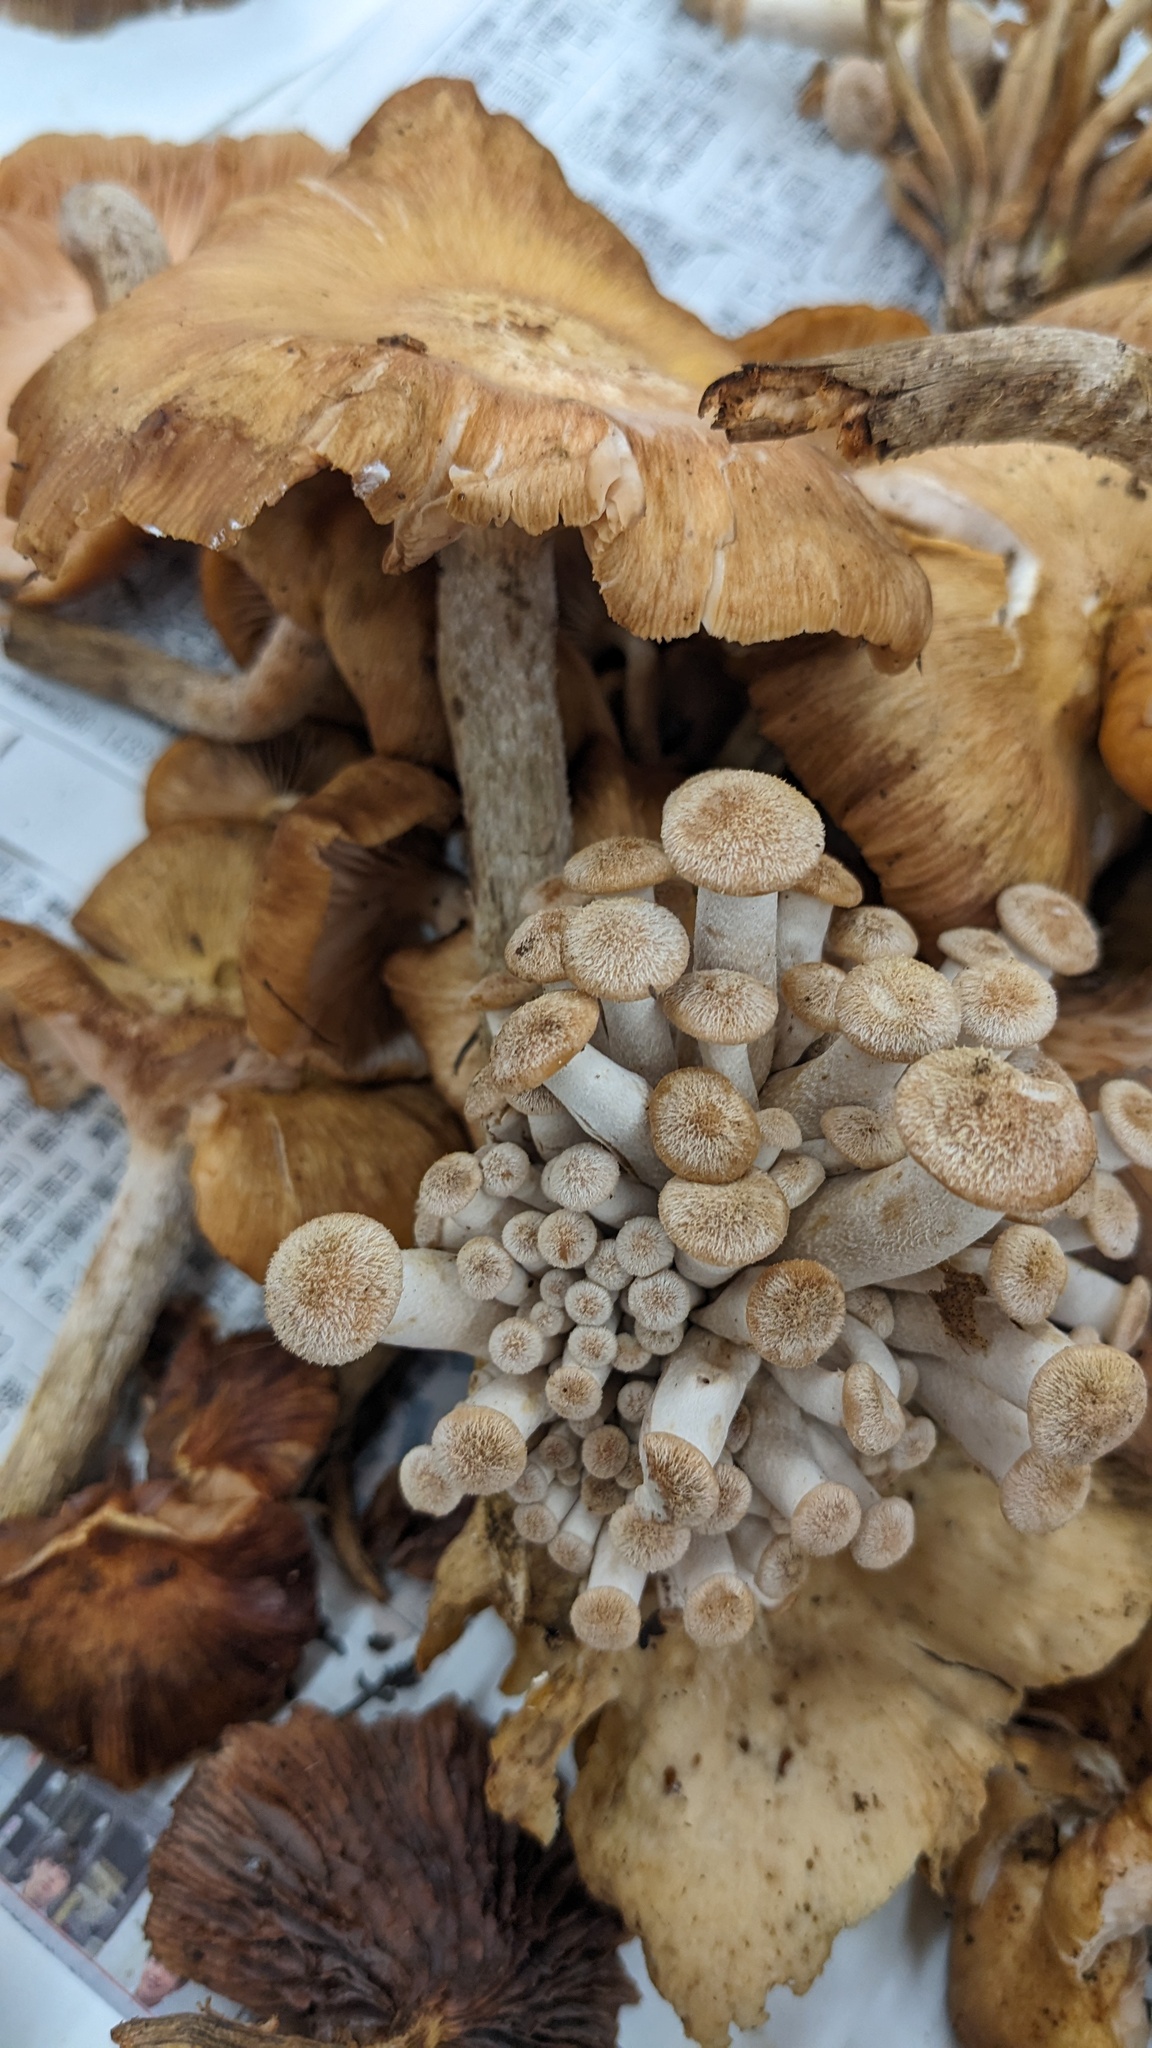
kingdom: Fungi
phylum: Basidiomycota
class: Agaricomycetes
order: Agaricales
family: Physalacriaceae
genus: Desarmillaria
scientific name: Desarmillaria tabescens
